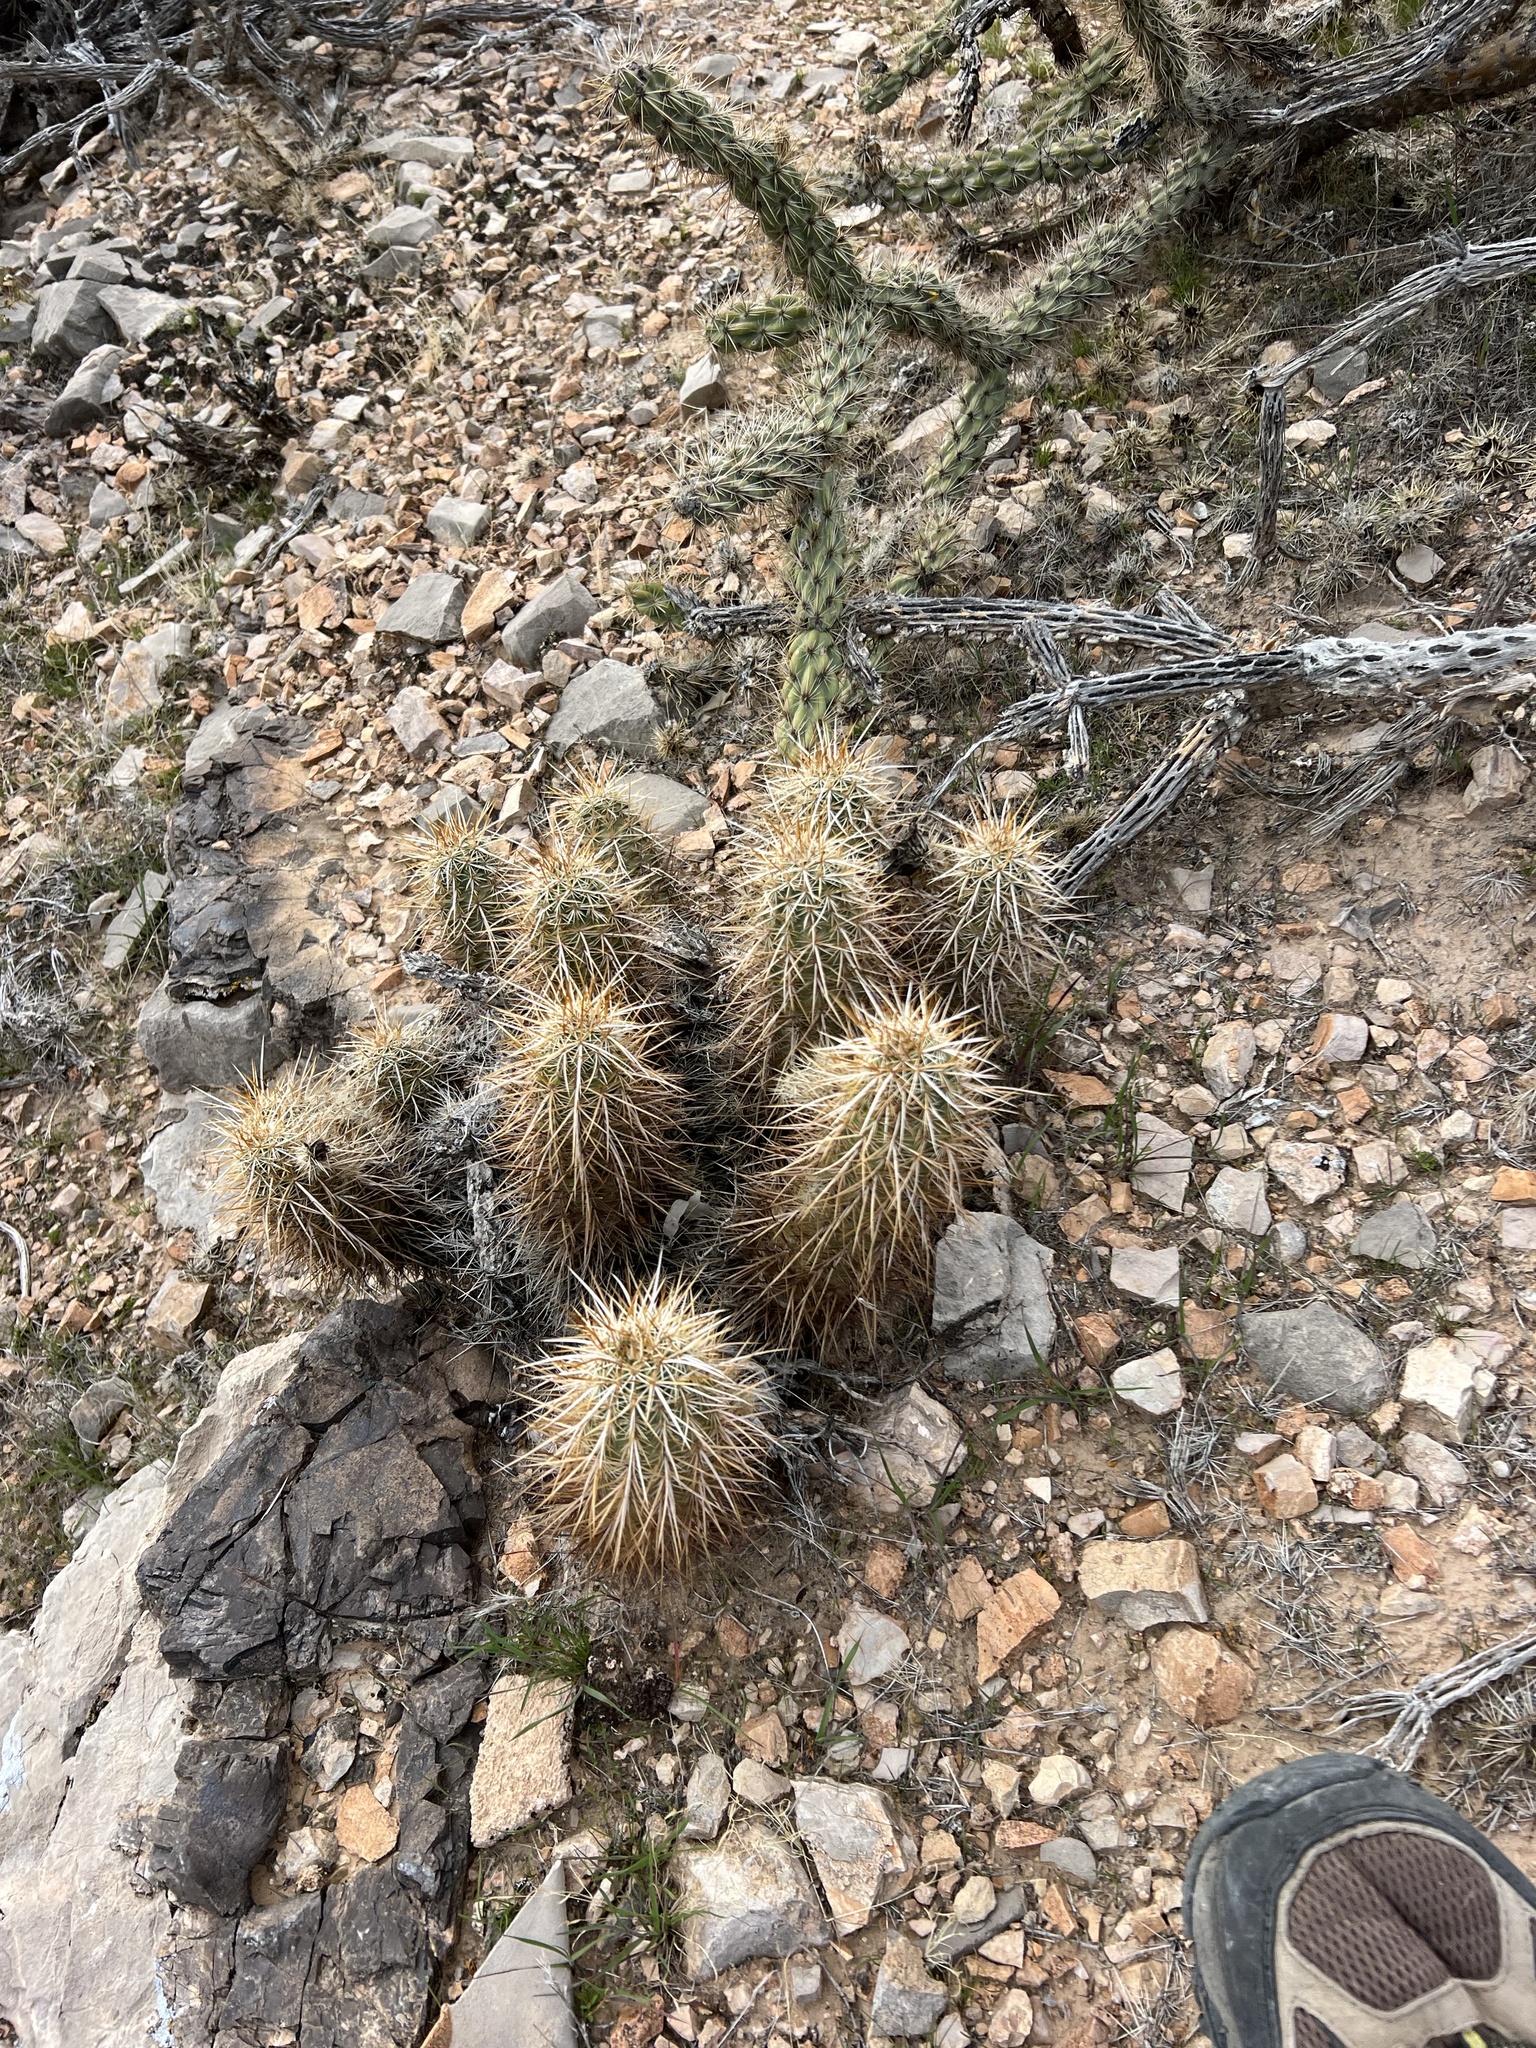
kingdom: Plantae
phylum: Tracheophyta
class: Magnoliopsida
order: Caryophyllales
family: Cactaceae
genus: Echinocereus
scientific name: Echinocereus engelmannii
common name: Engelmann's hedgehog cactus
